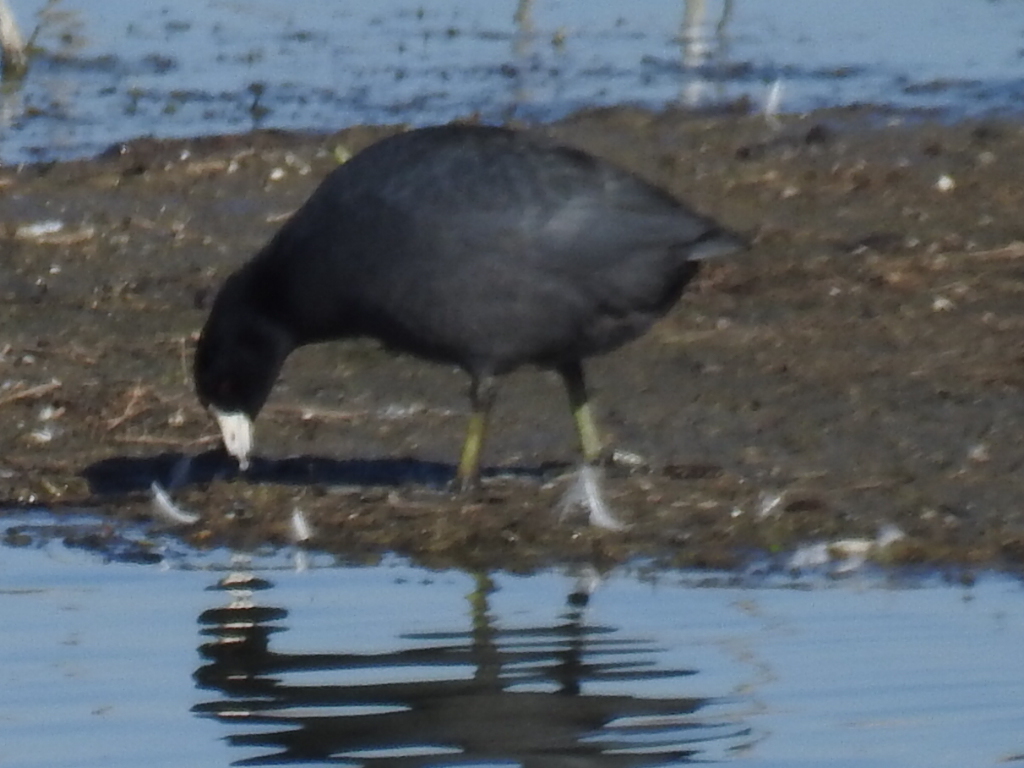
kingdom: Animalia
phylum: Chordata
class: Aves
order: Gruiformes
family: Rallidae
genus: Fulica
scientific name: Fulica americana
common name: American coot
